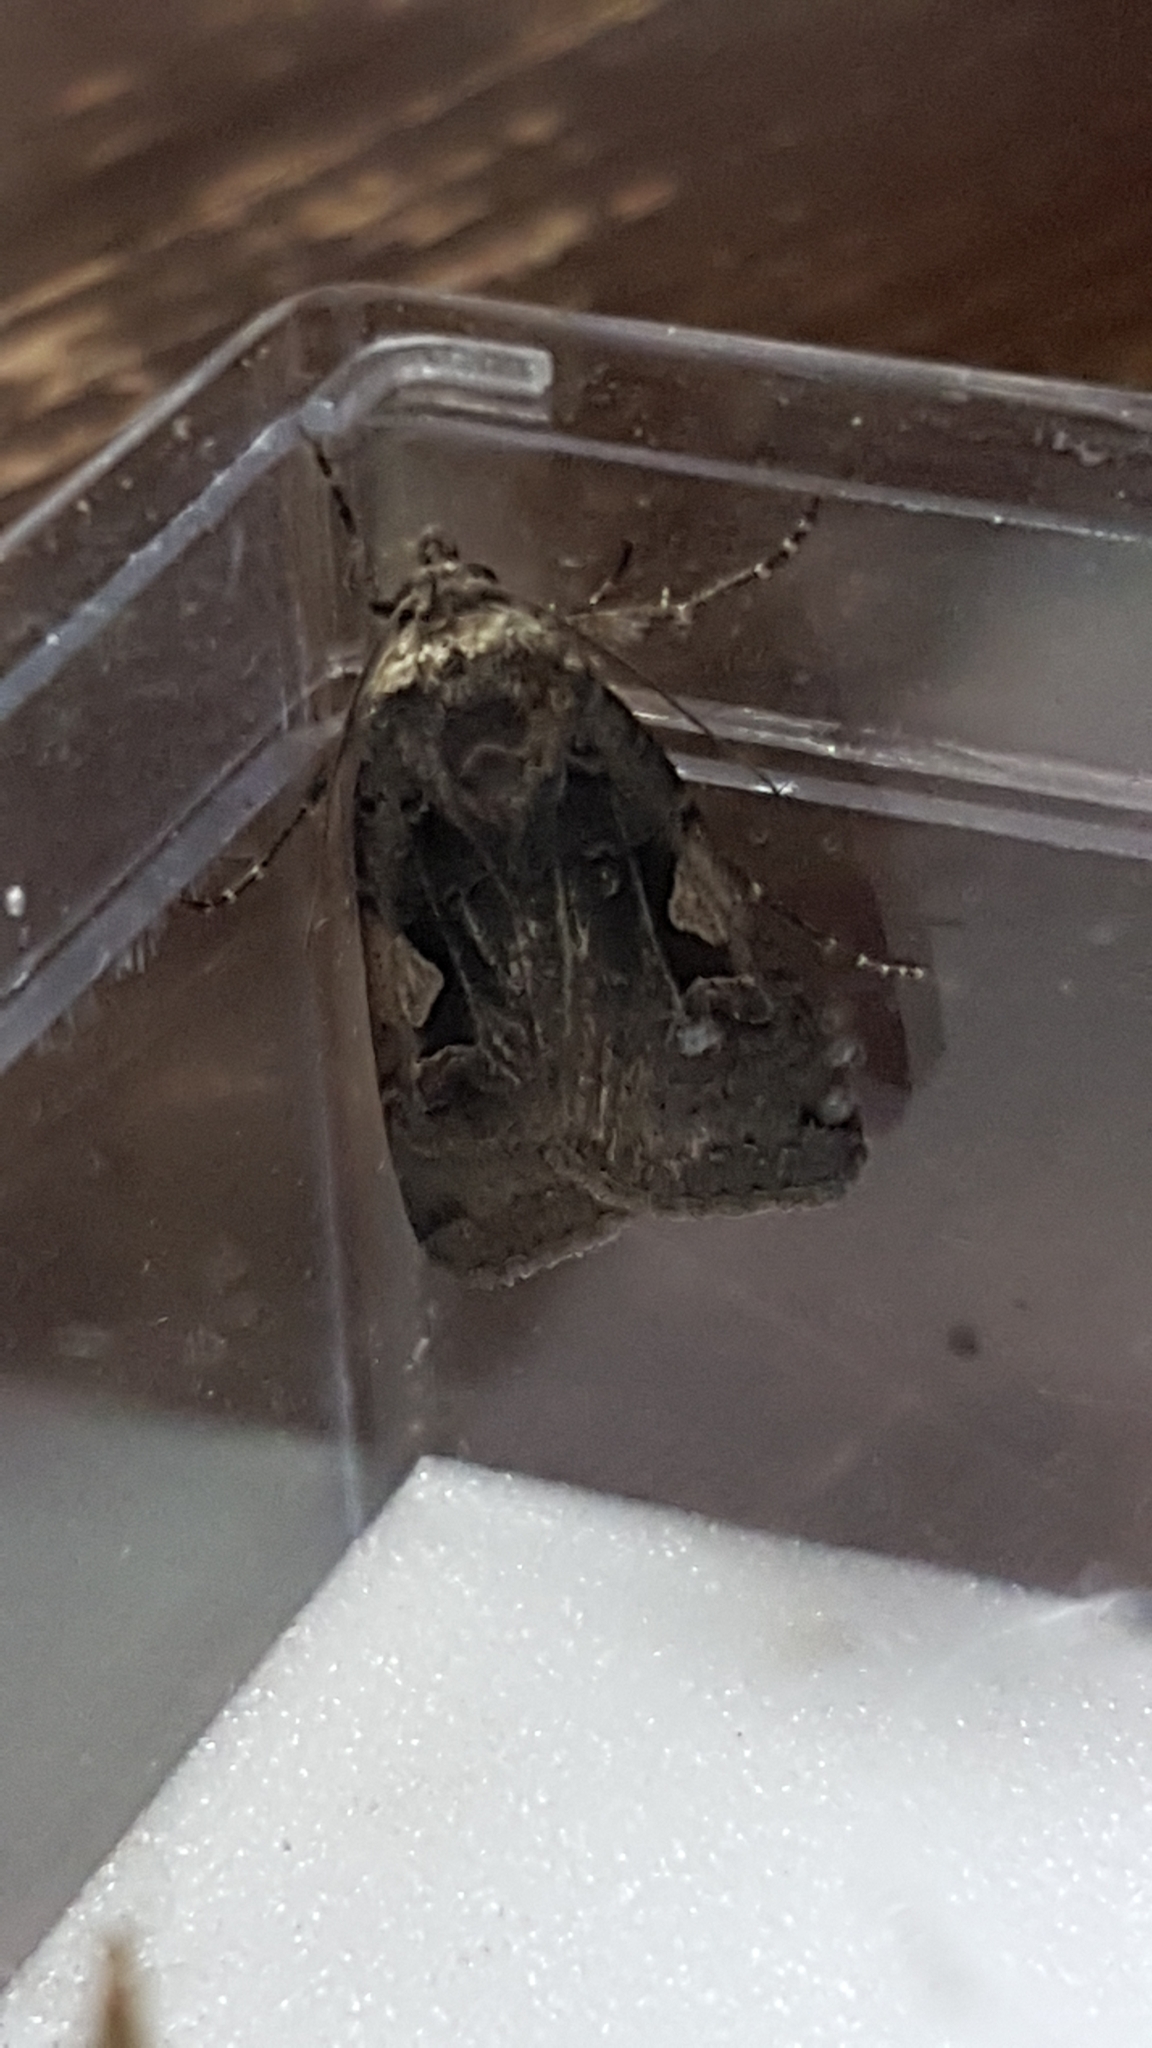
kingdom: Animalia
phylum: Arthropoda
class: Insecta
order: Lepidoptera
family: Noctuidae
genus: Xestia
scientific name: Xestia c-nigrum
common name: Setaceous hebrew character
